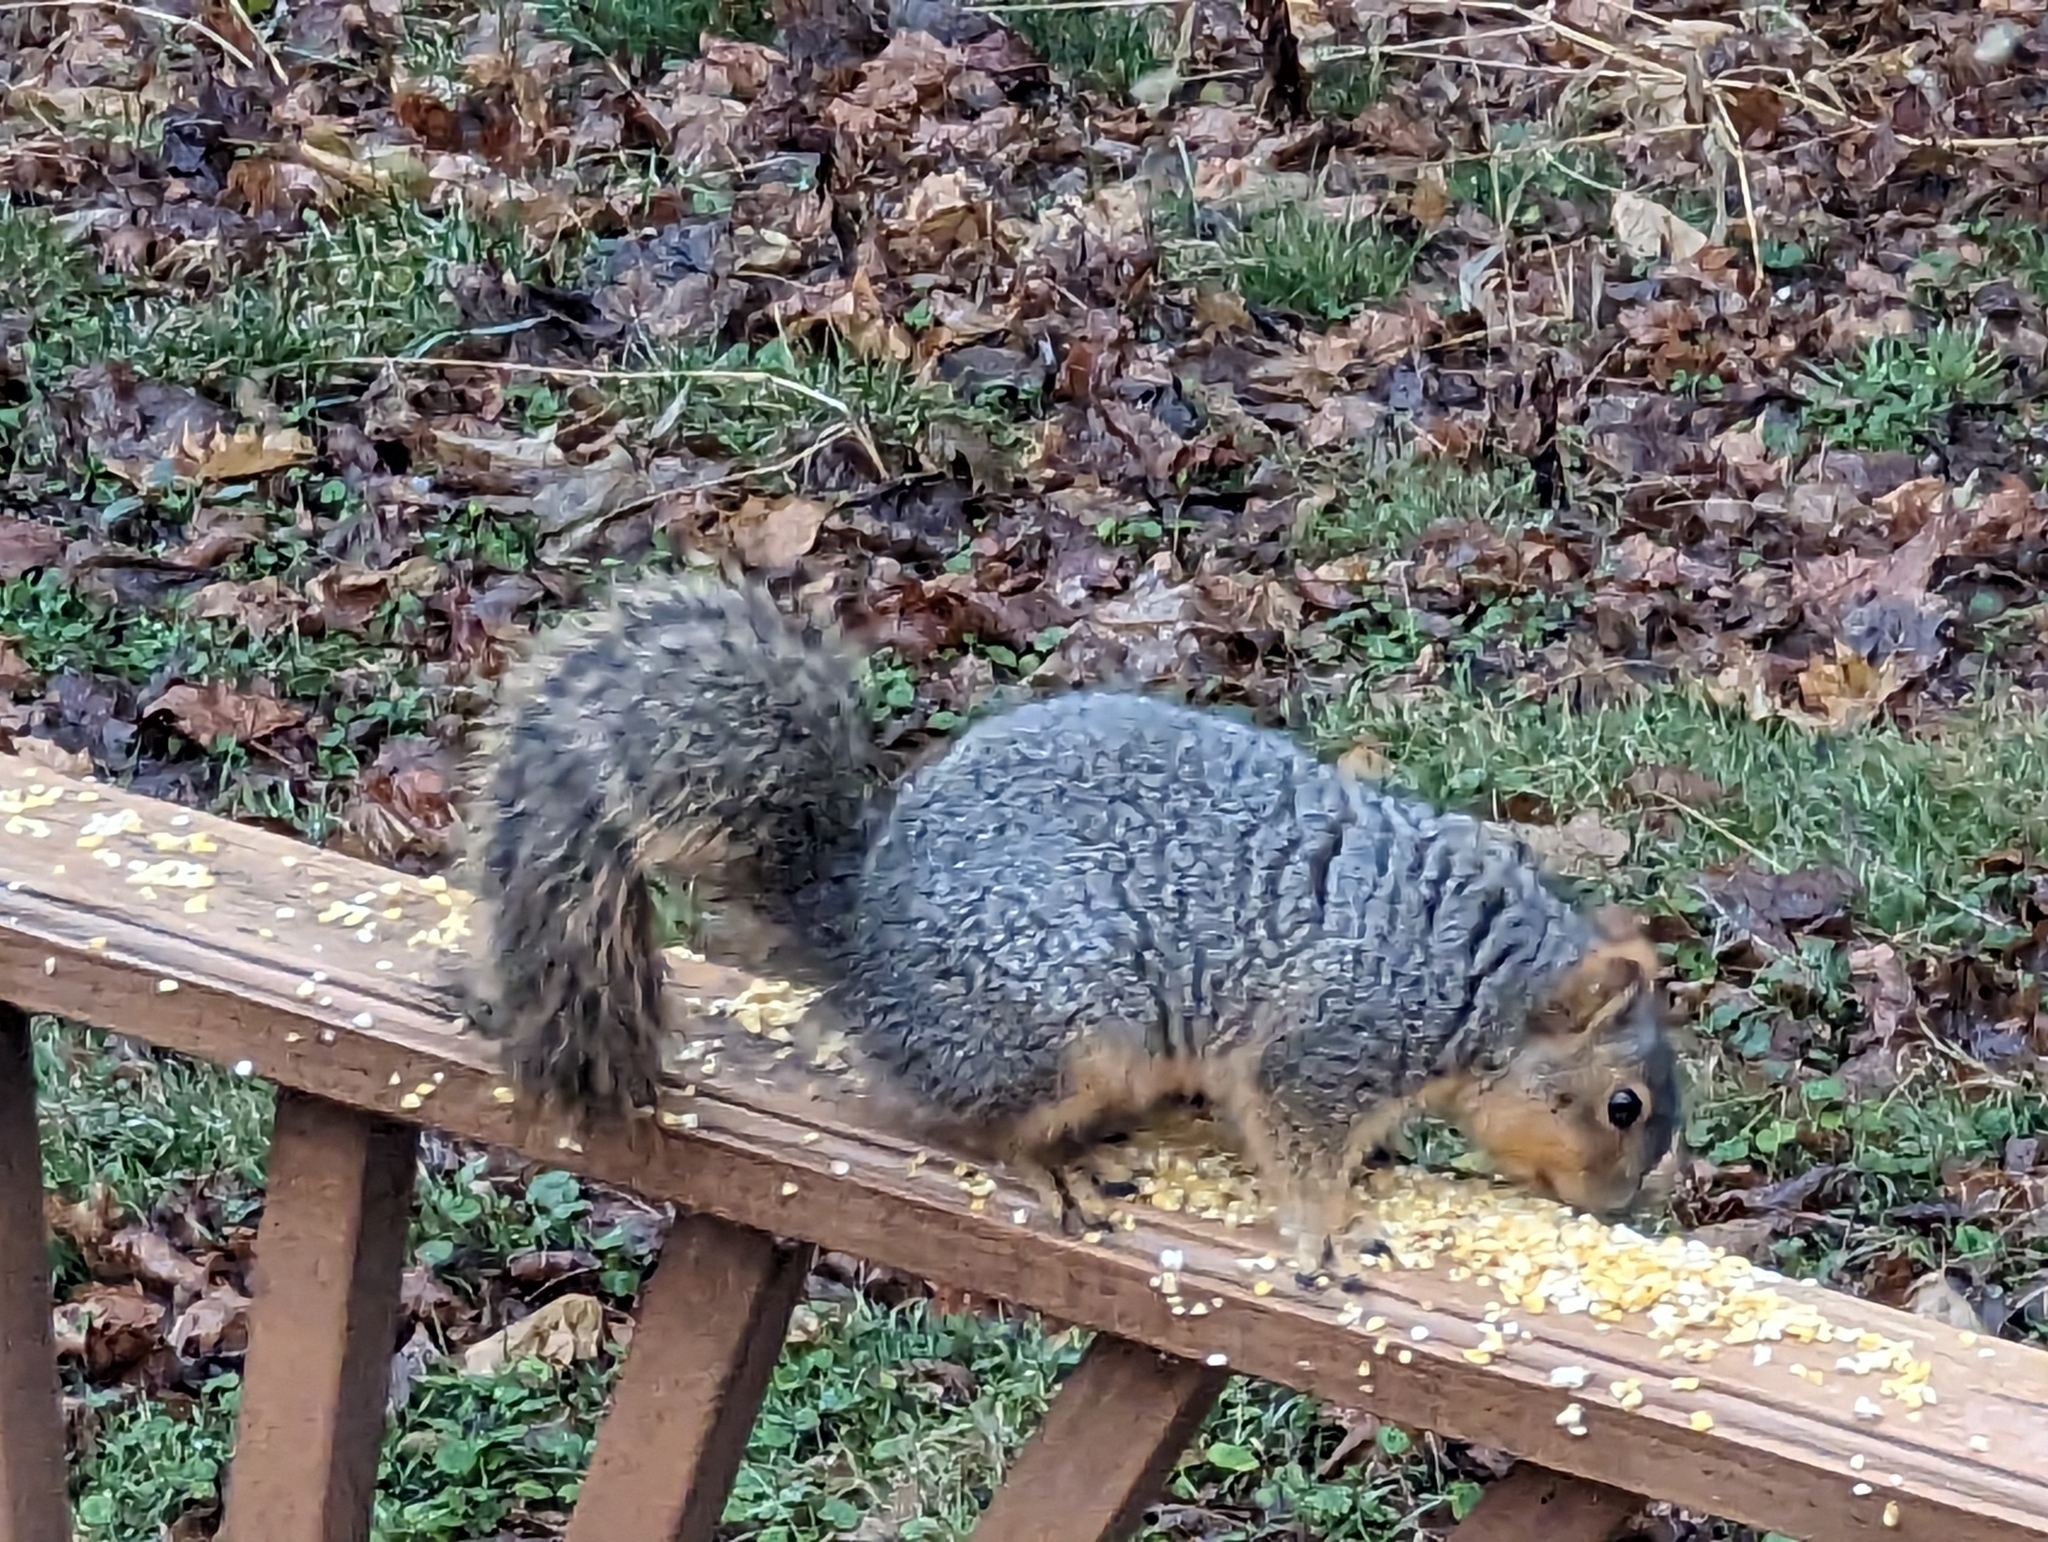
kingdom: Animalia
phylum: Chordata
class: Mammalia
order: Rodentia
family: Sciuridae
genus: Sciurus
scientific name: Sciurus niger
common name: Fox squirrel
